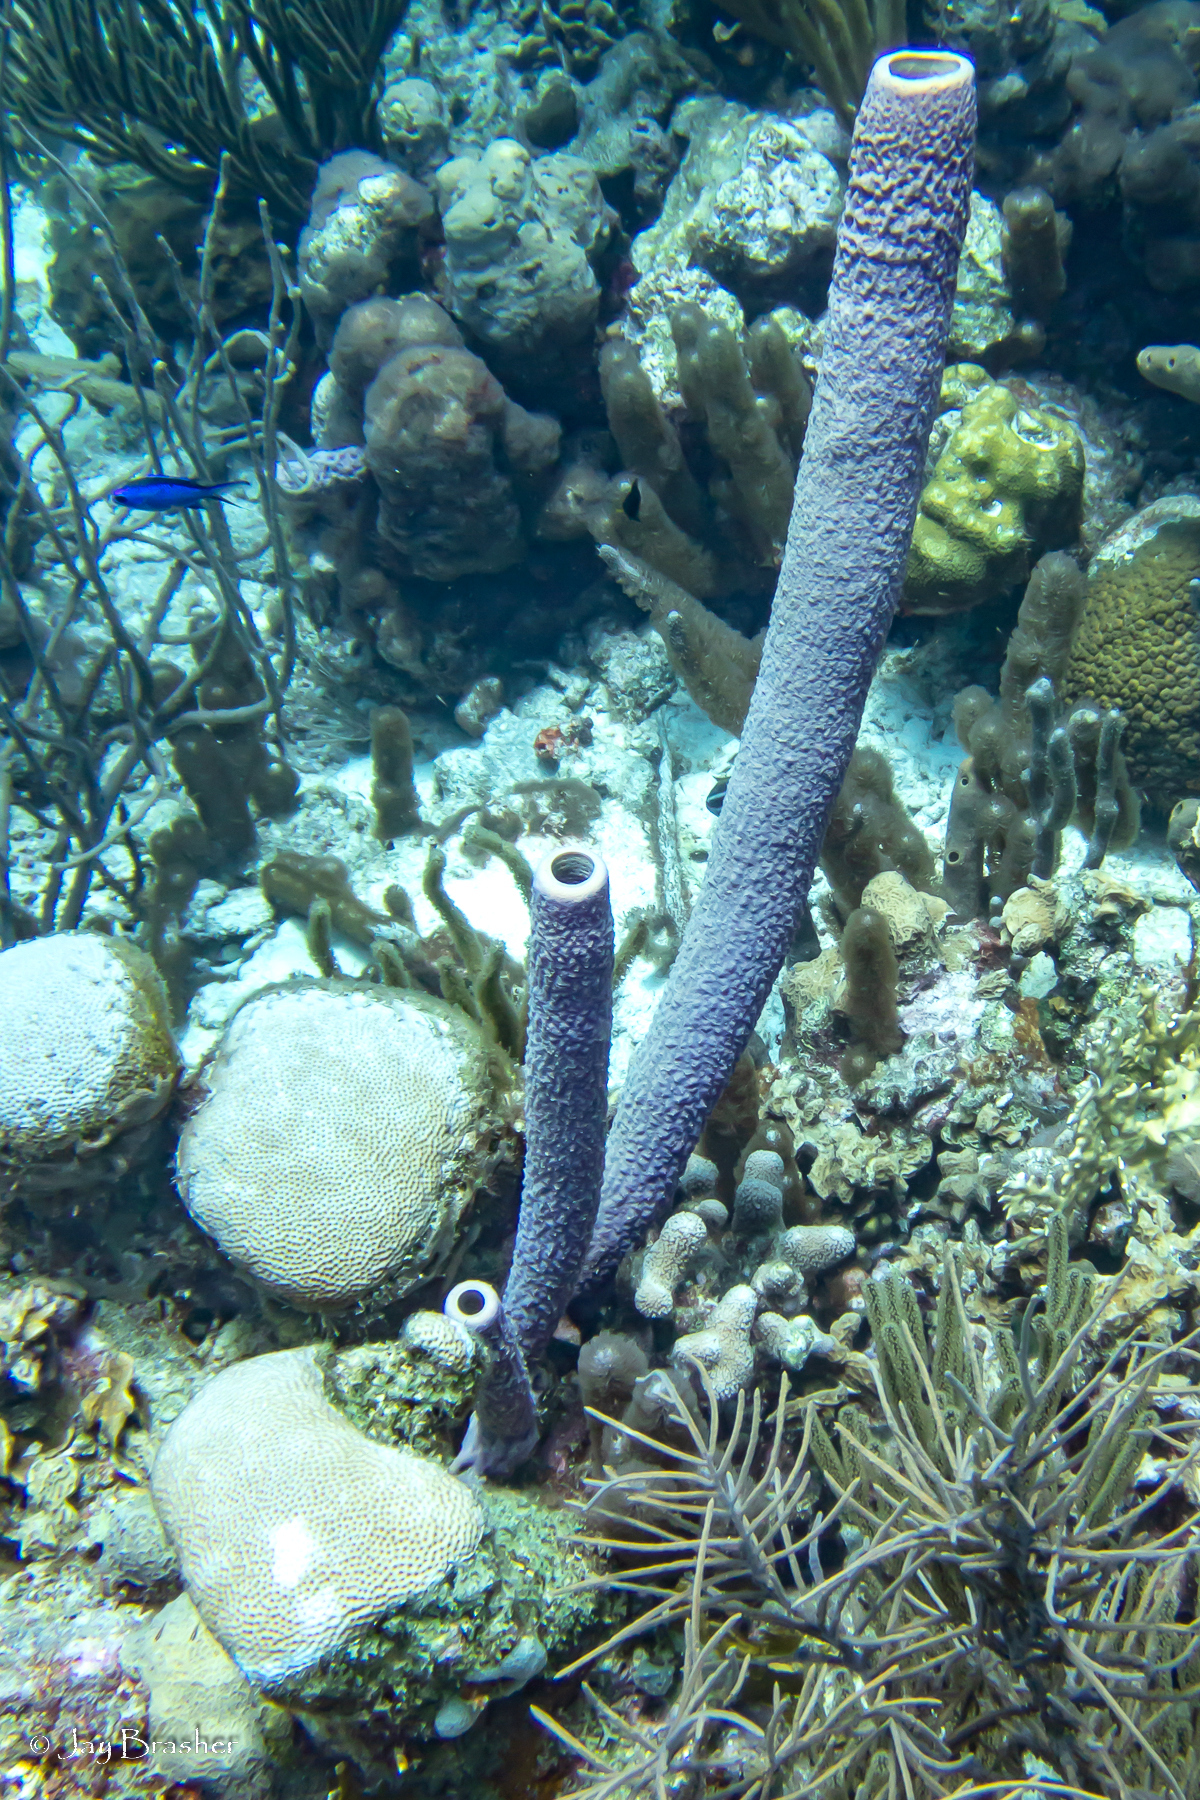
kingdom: Animalia
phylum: Chordata
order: Perciformes
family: Pomacentridae
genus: Chromis
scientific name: Chromis cyanea
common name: Blue chromis
